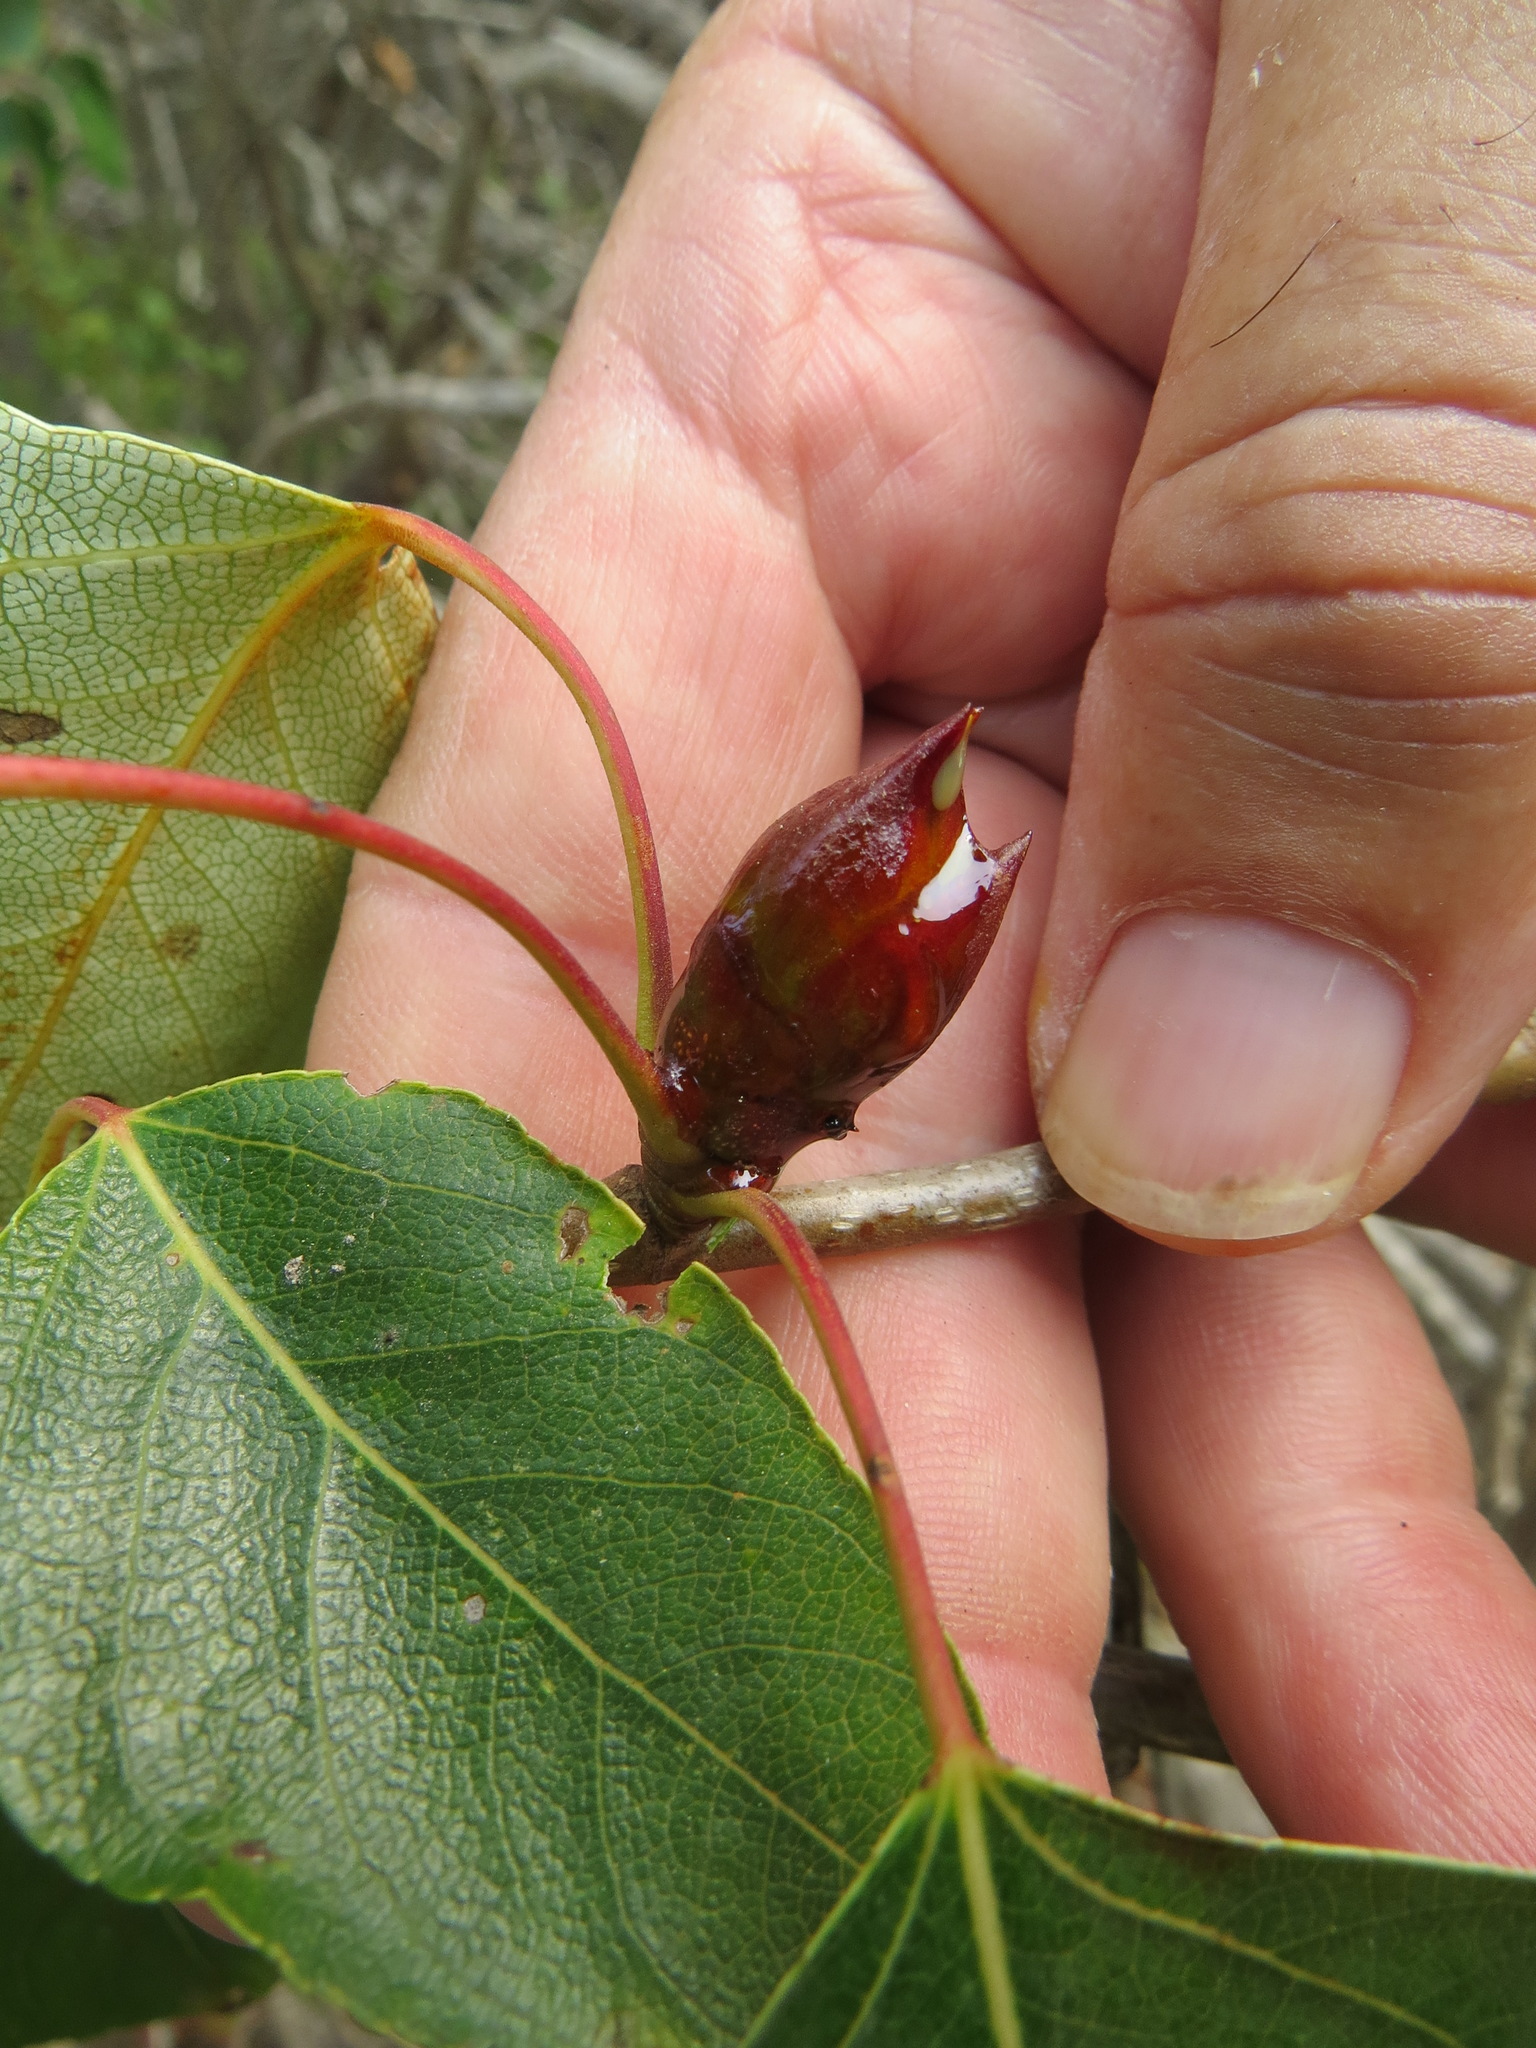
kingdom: Animalia
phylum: Arthropoda
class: Insecta
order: Diptera
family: Cecidomyiidae
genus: Dasineura
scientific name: Dasineura
